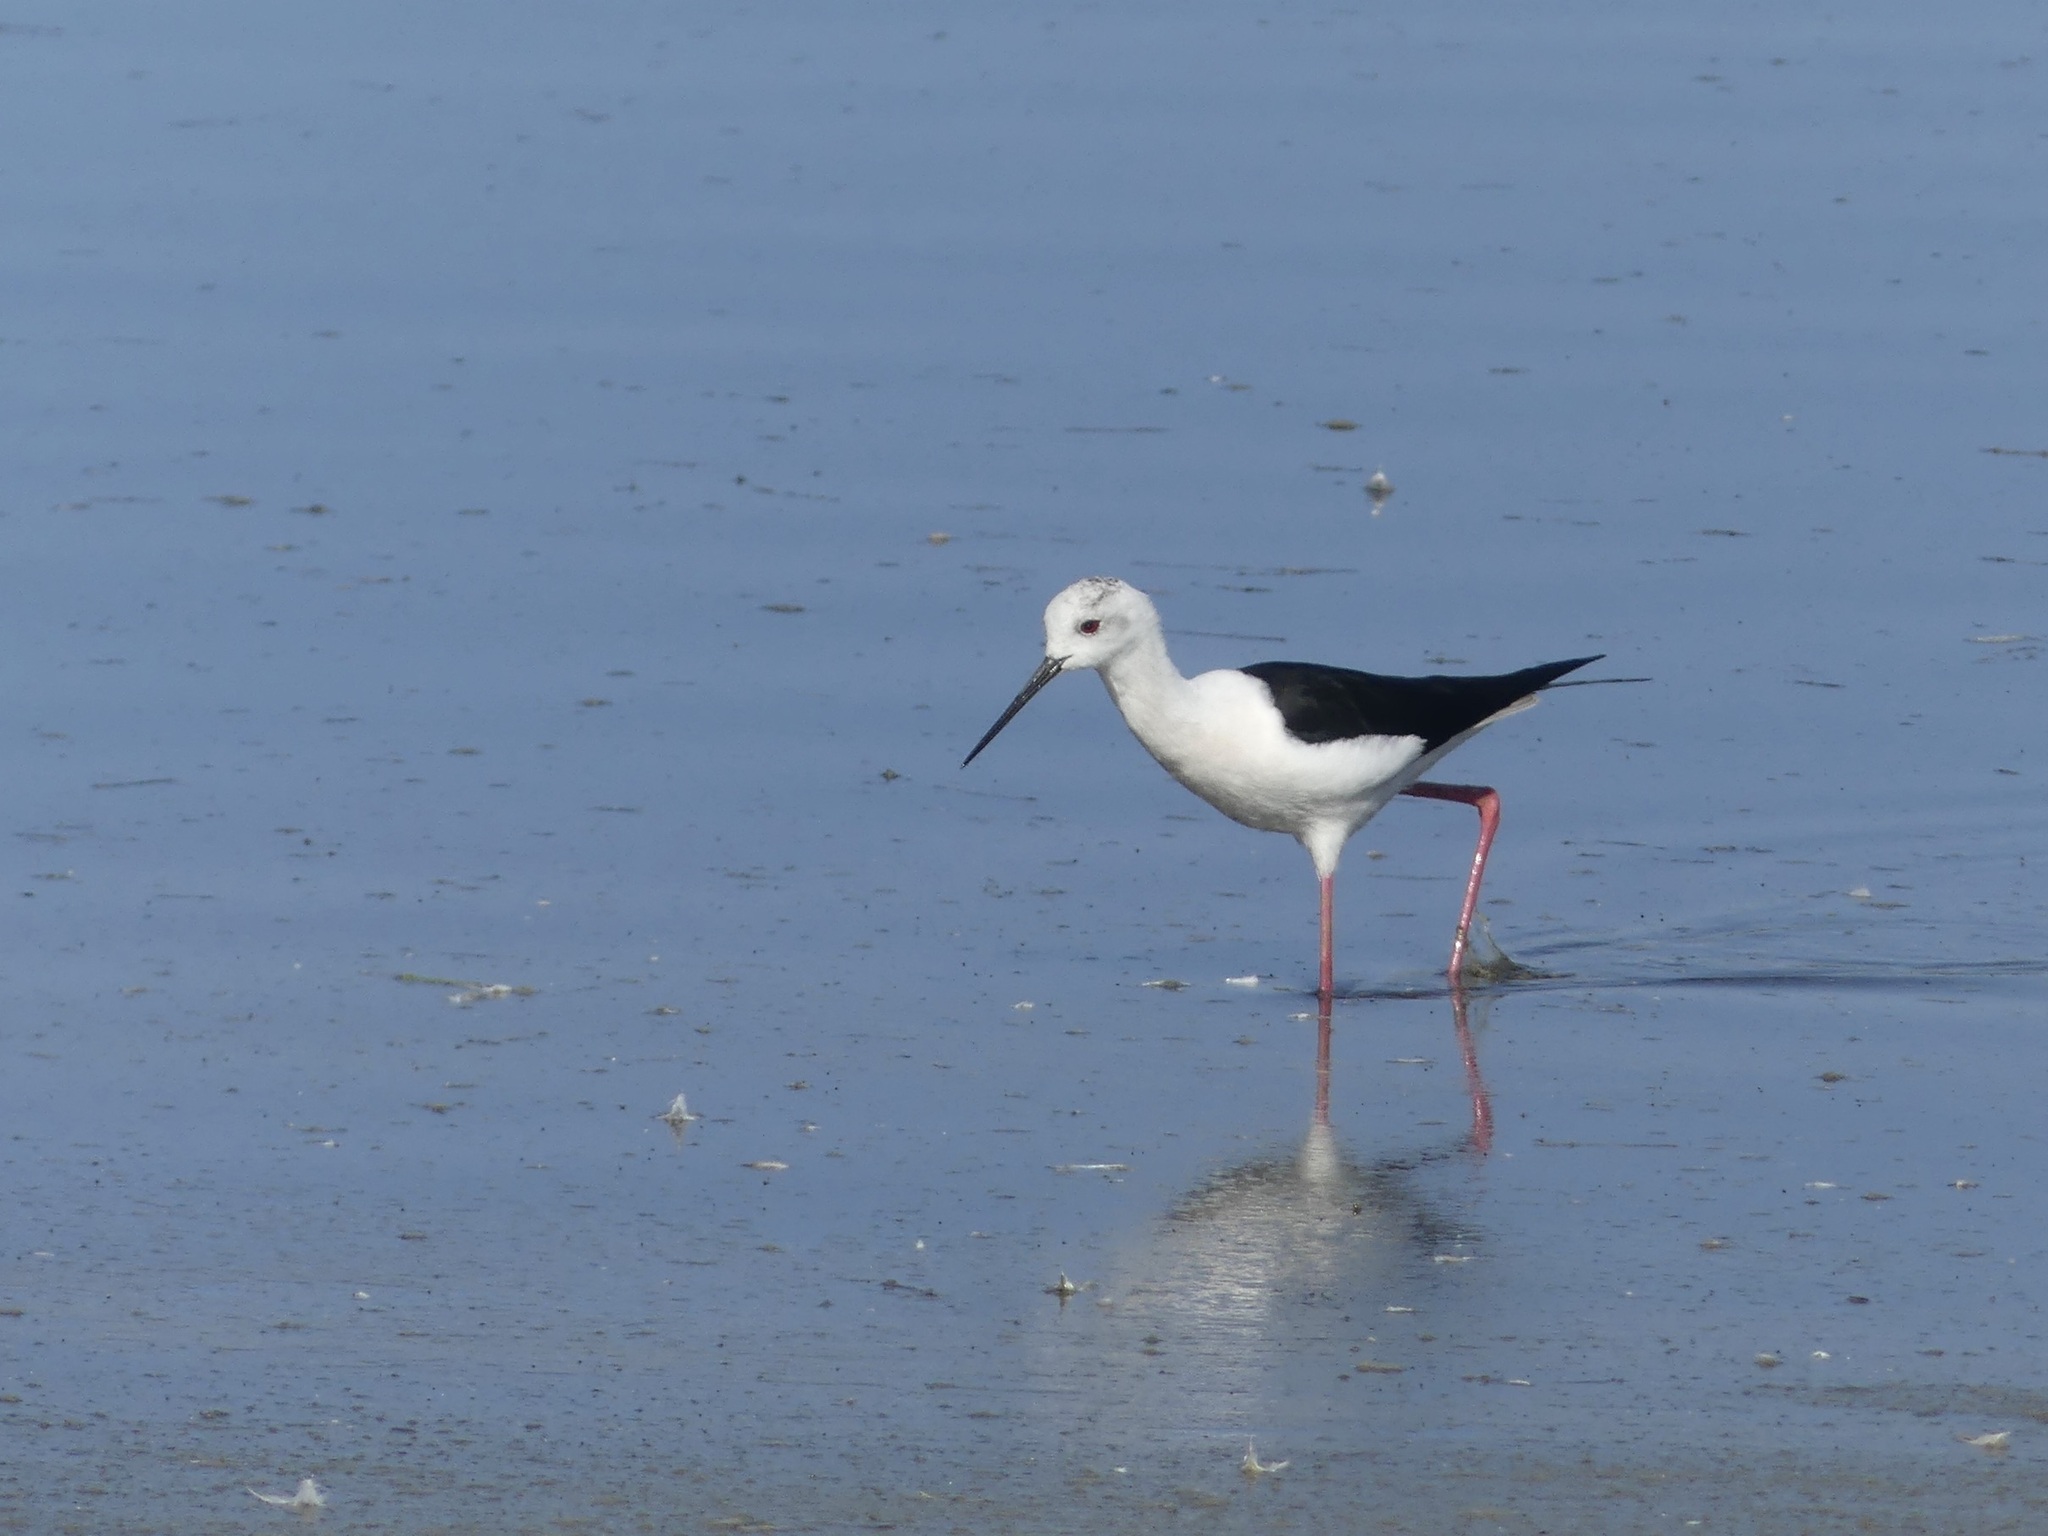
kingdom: Animalia
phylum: Chordata
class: Aves
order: Charadriiformes
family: Recurvirostridae
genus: Himantopus
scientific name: Himantopus himantopus
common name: Black-winged stilt
